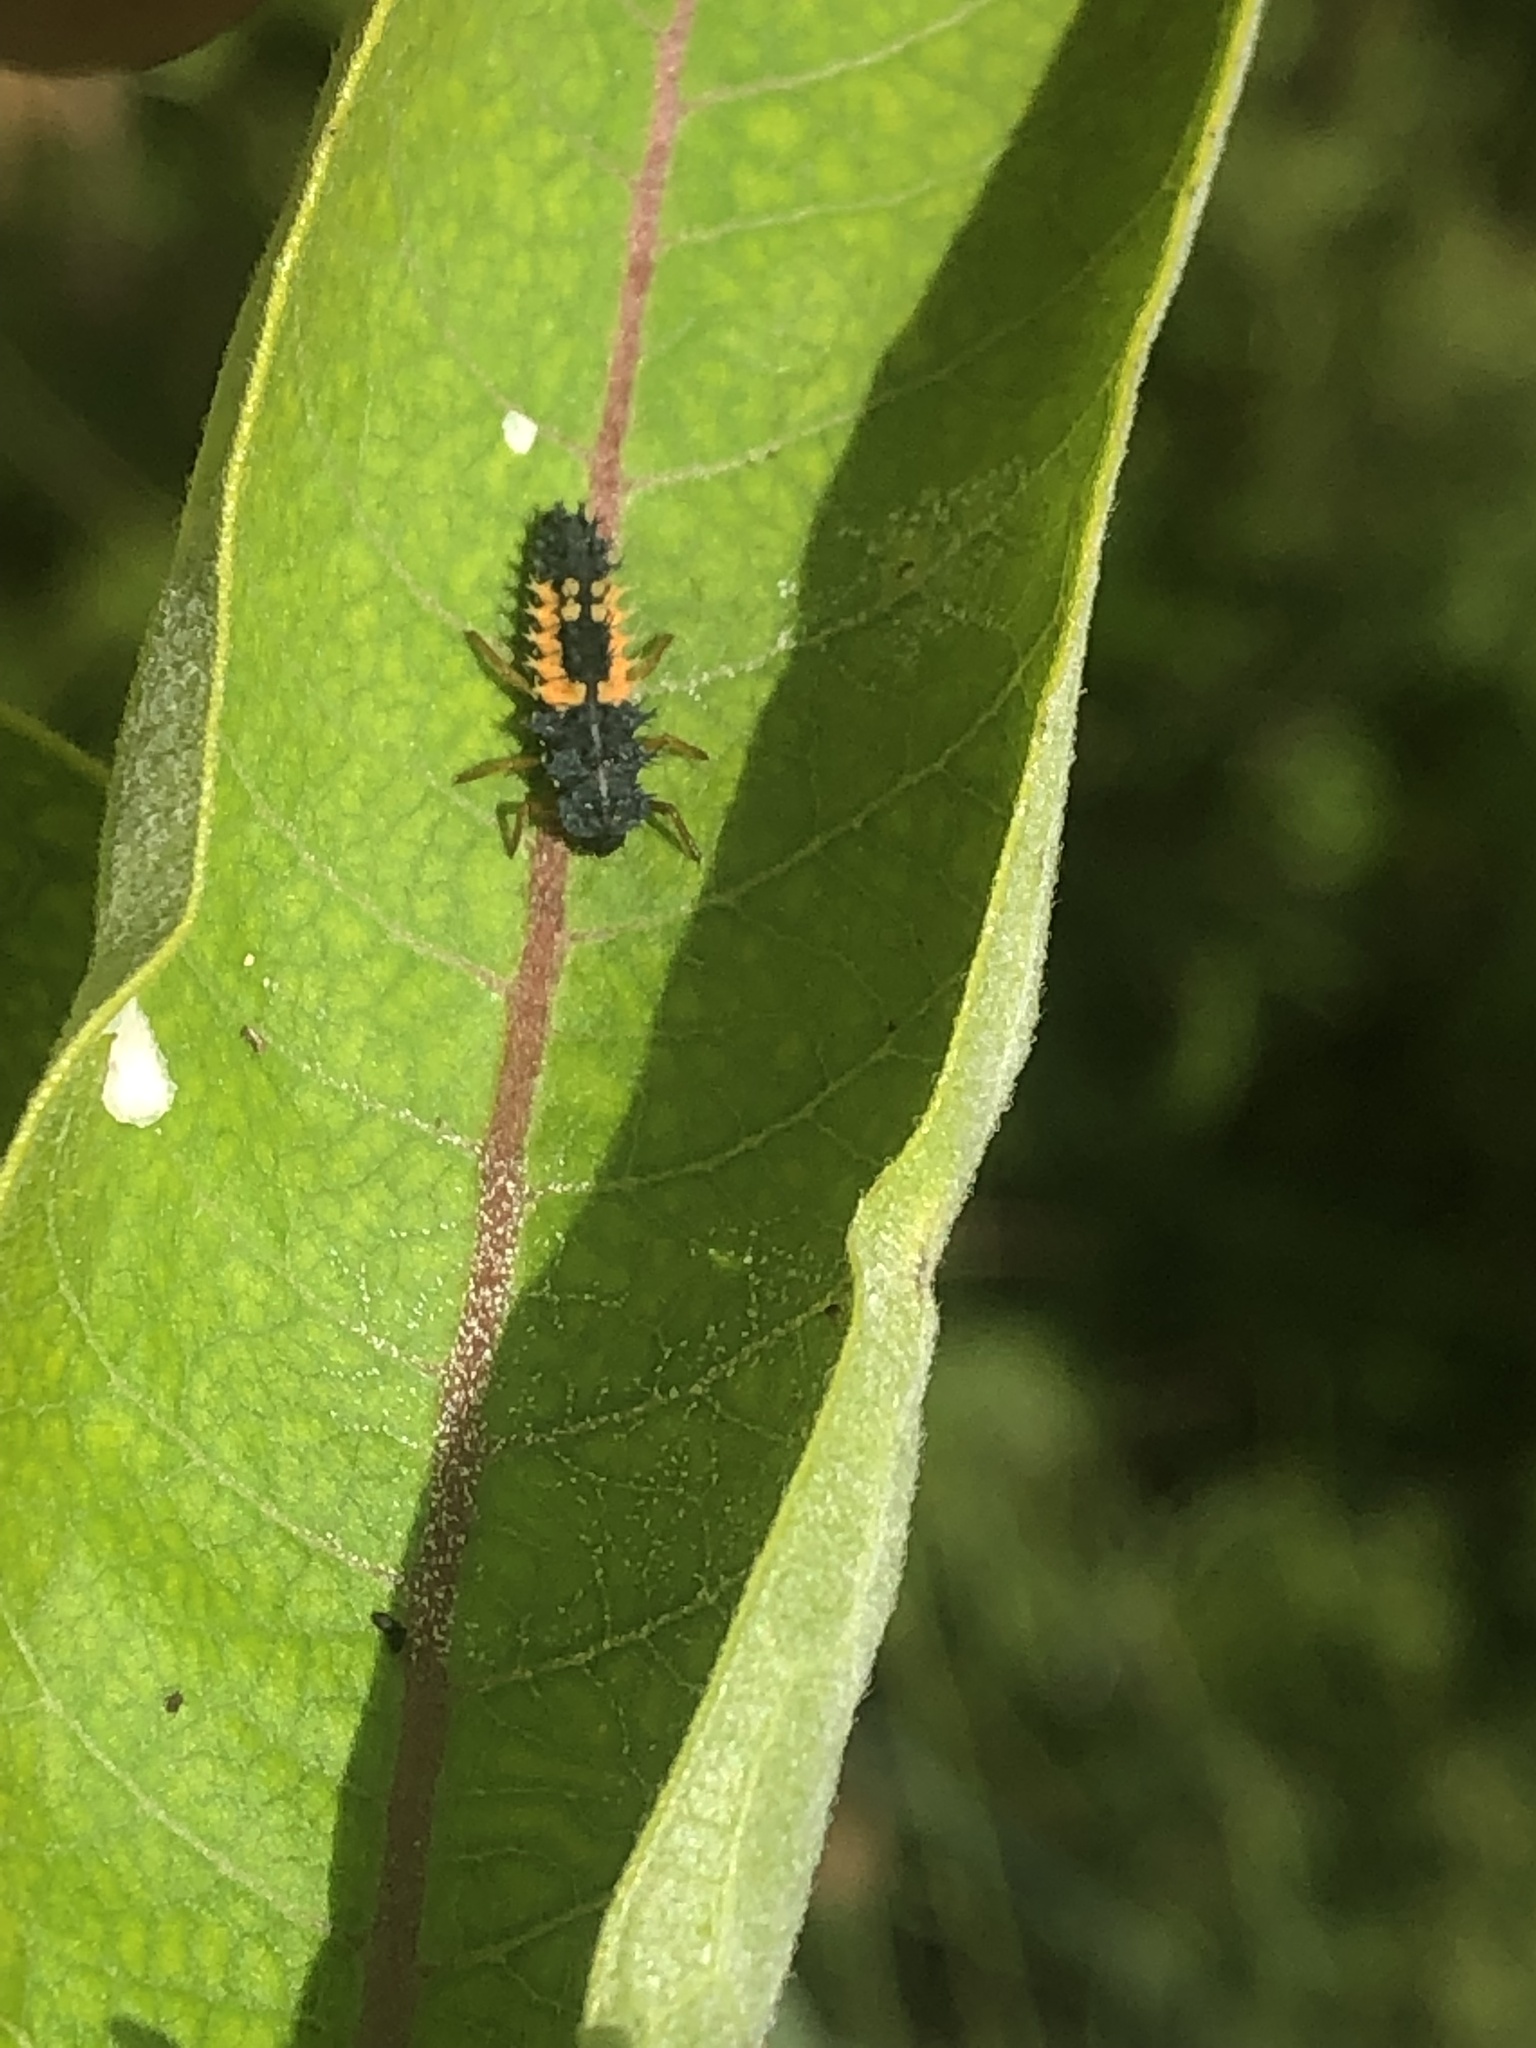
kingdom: Animalia
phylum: Arthropoda
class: Insecta
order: Coleoptera
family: Coccinellidae
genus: Harmonia
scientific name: Harmonia axyridis
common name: Harlequin ladybird
